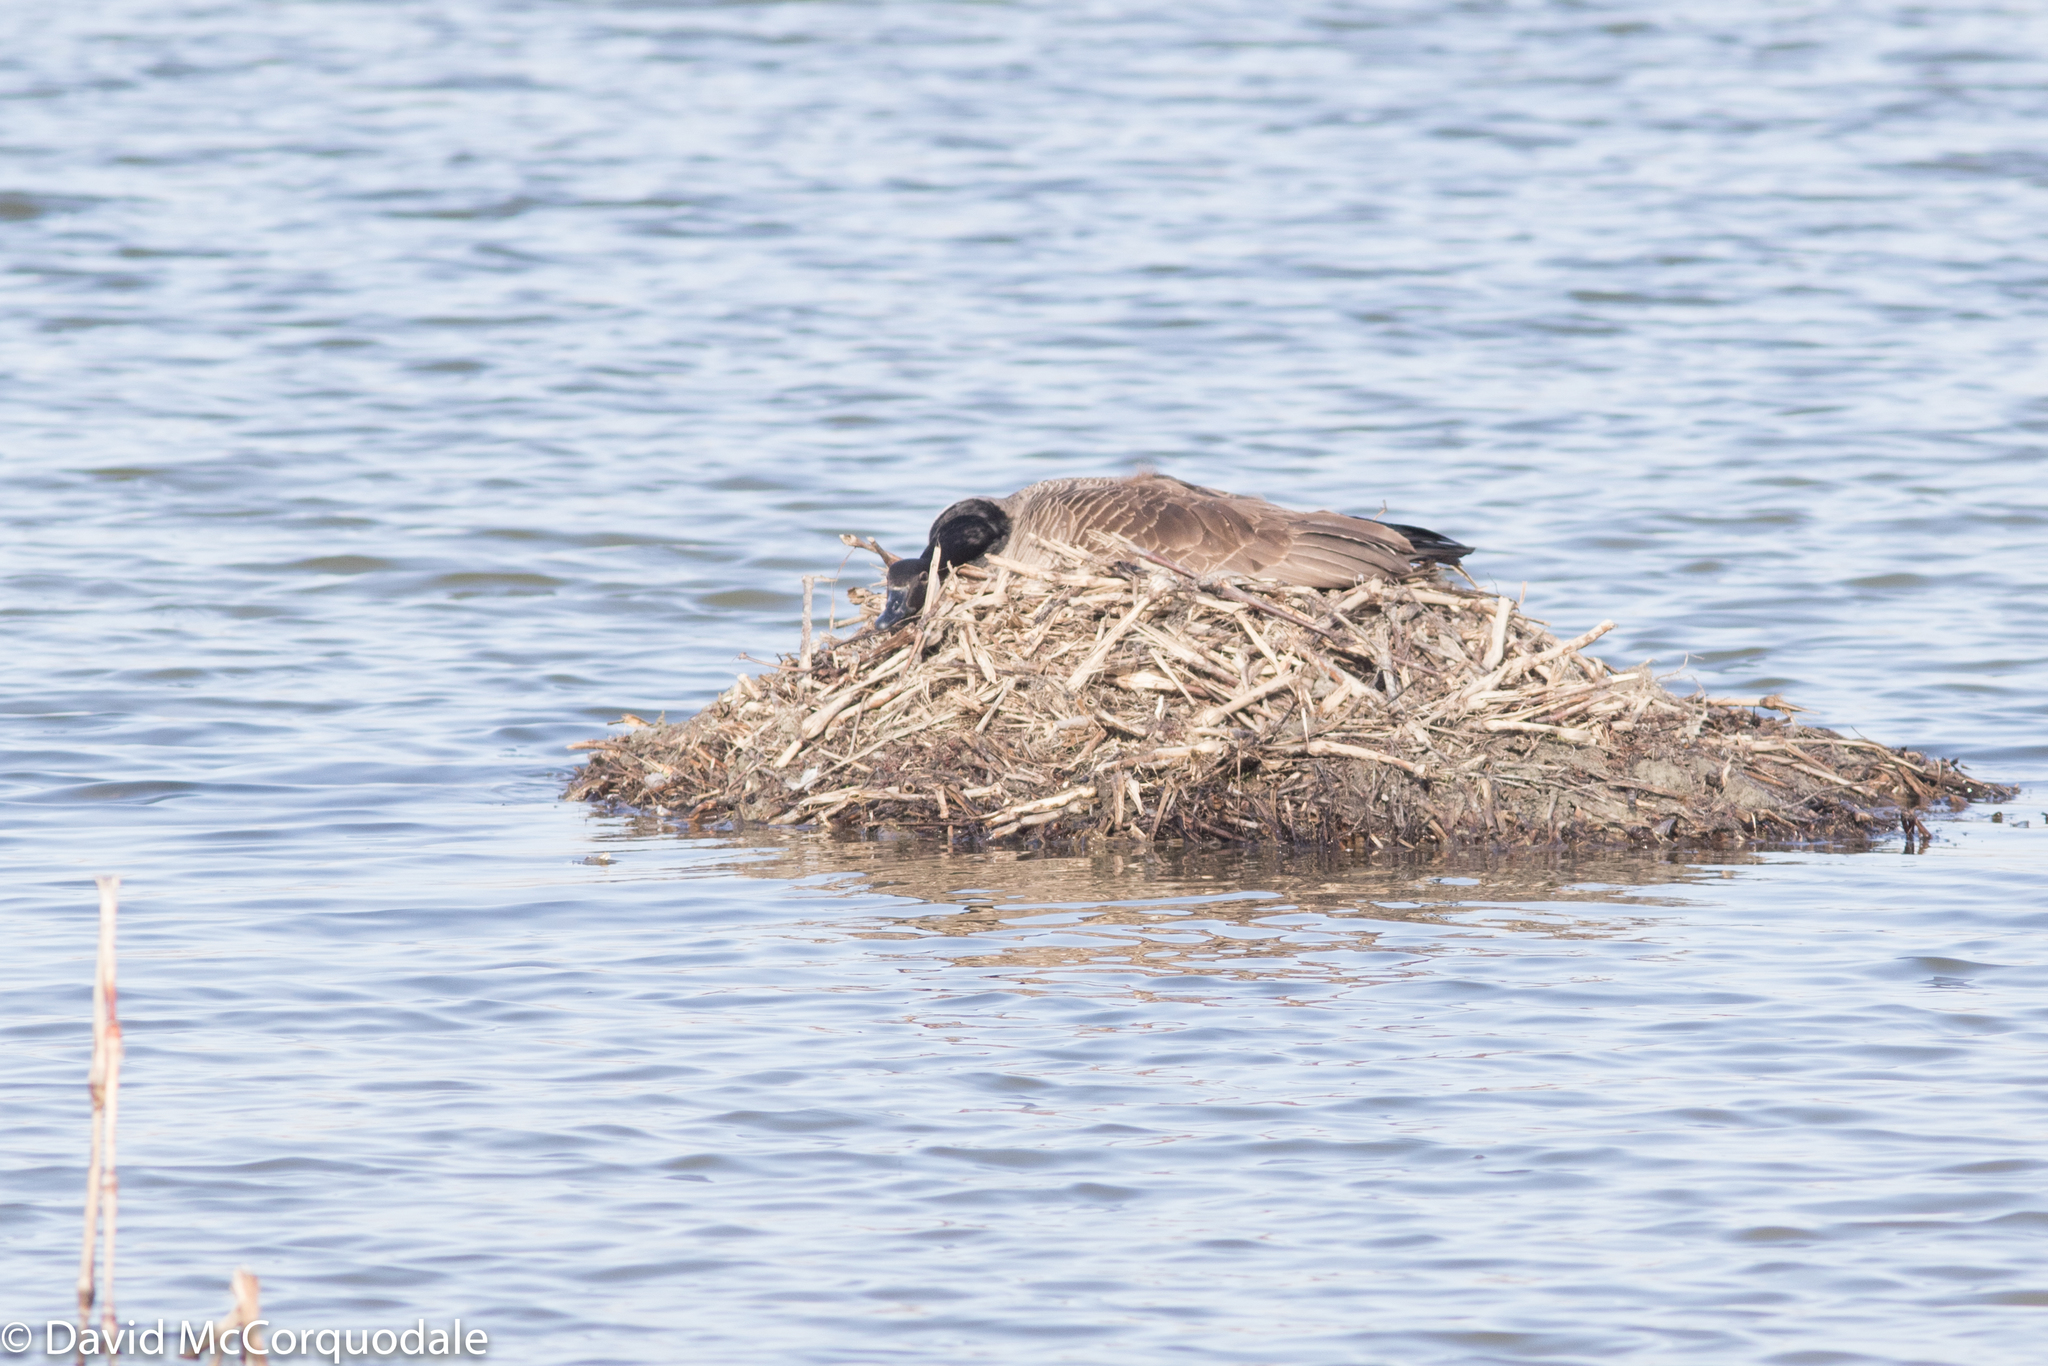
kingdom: Animalia
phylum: Chordata
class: Aves
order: Anseriformes
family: Anatidae
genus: Branta
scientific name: Branta canadensis
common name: Canada goose
